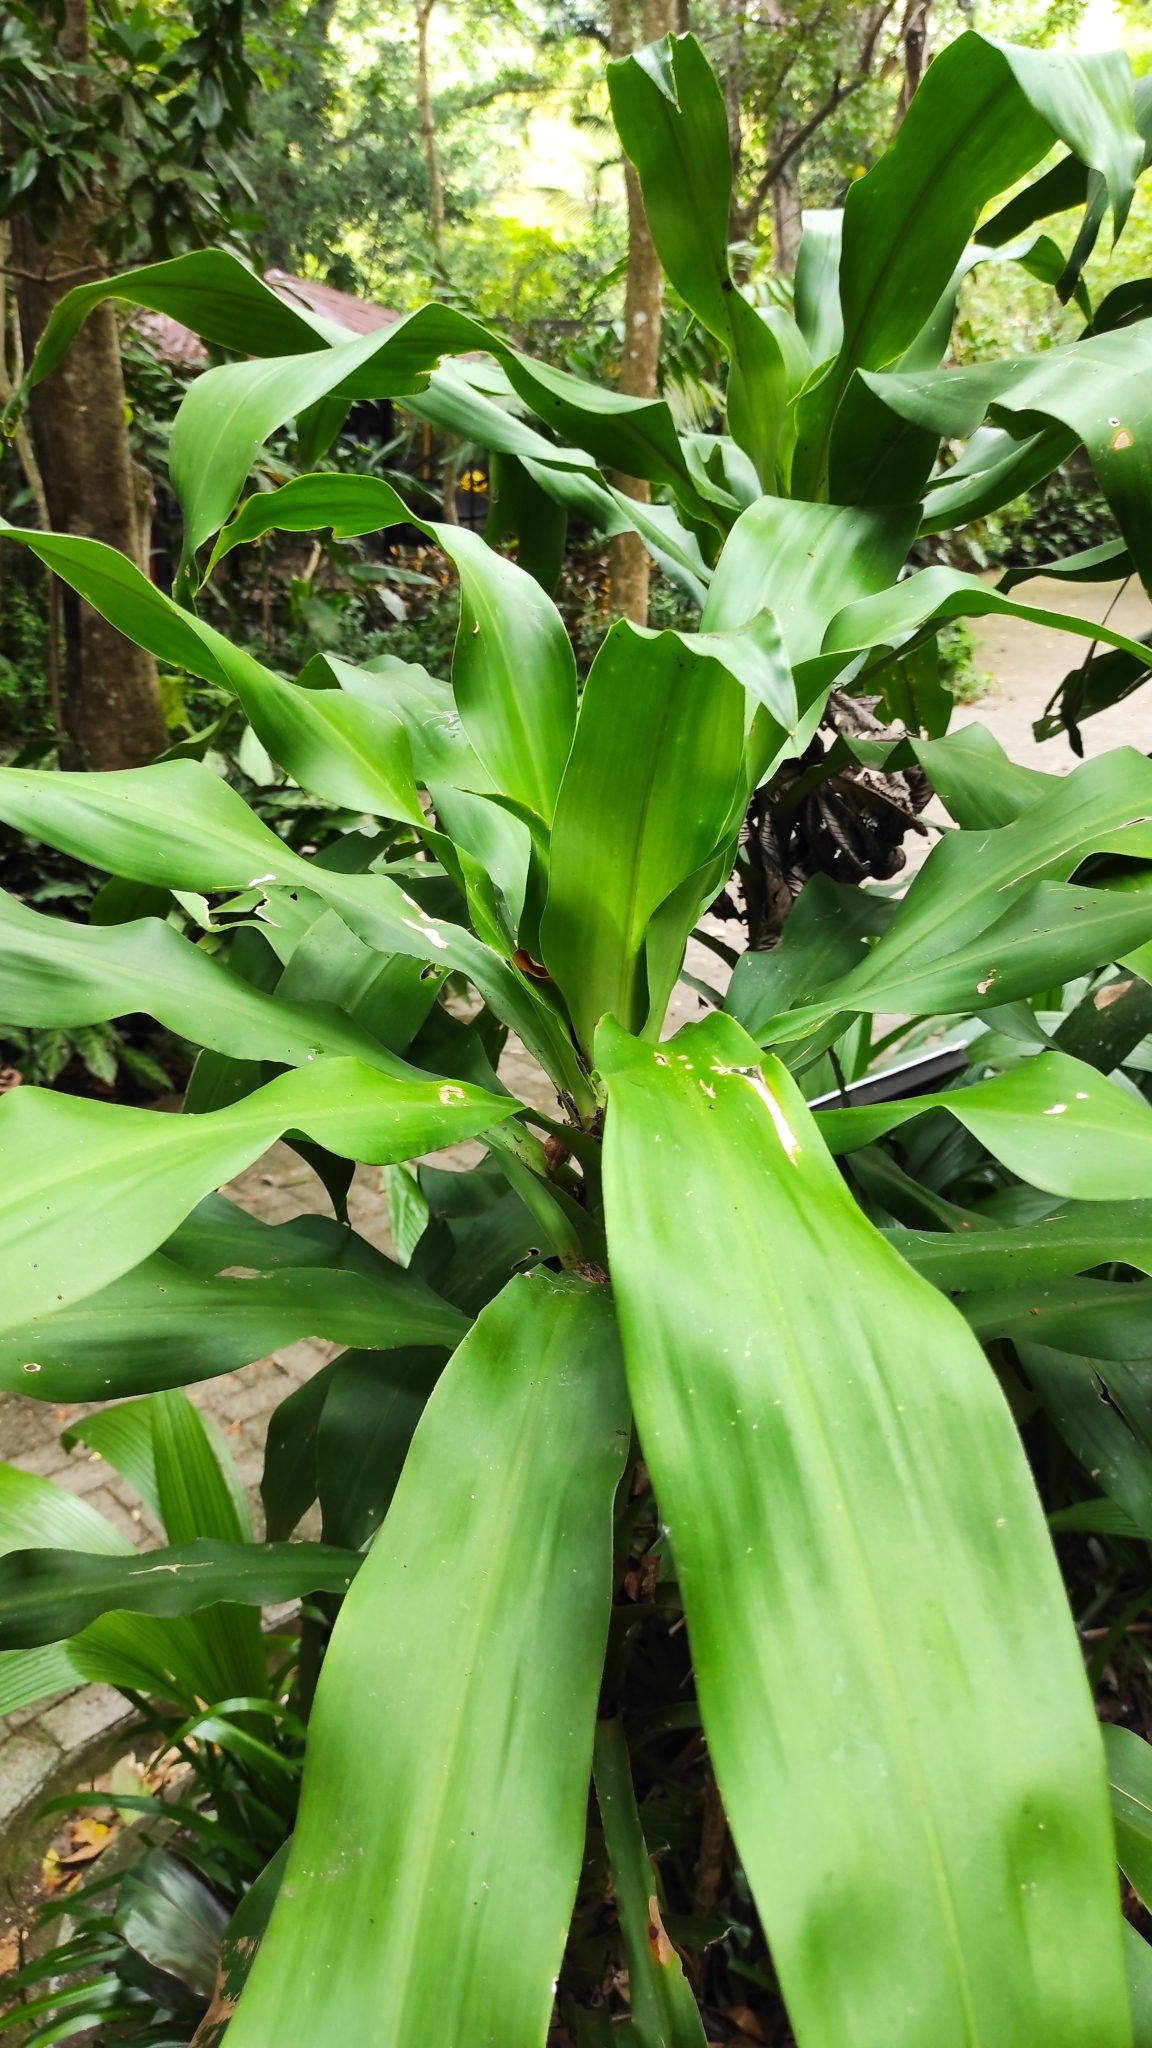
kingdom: Plantae
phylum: Tracheophyta
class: Liliopsida
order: Asparagales
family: Asparagaceae
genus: Dracaena
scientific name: Dracaena fragrans
